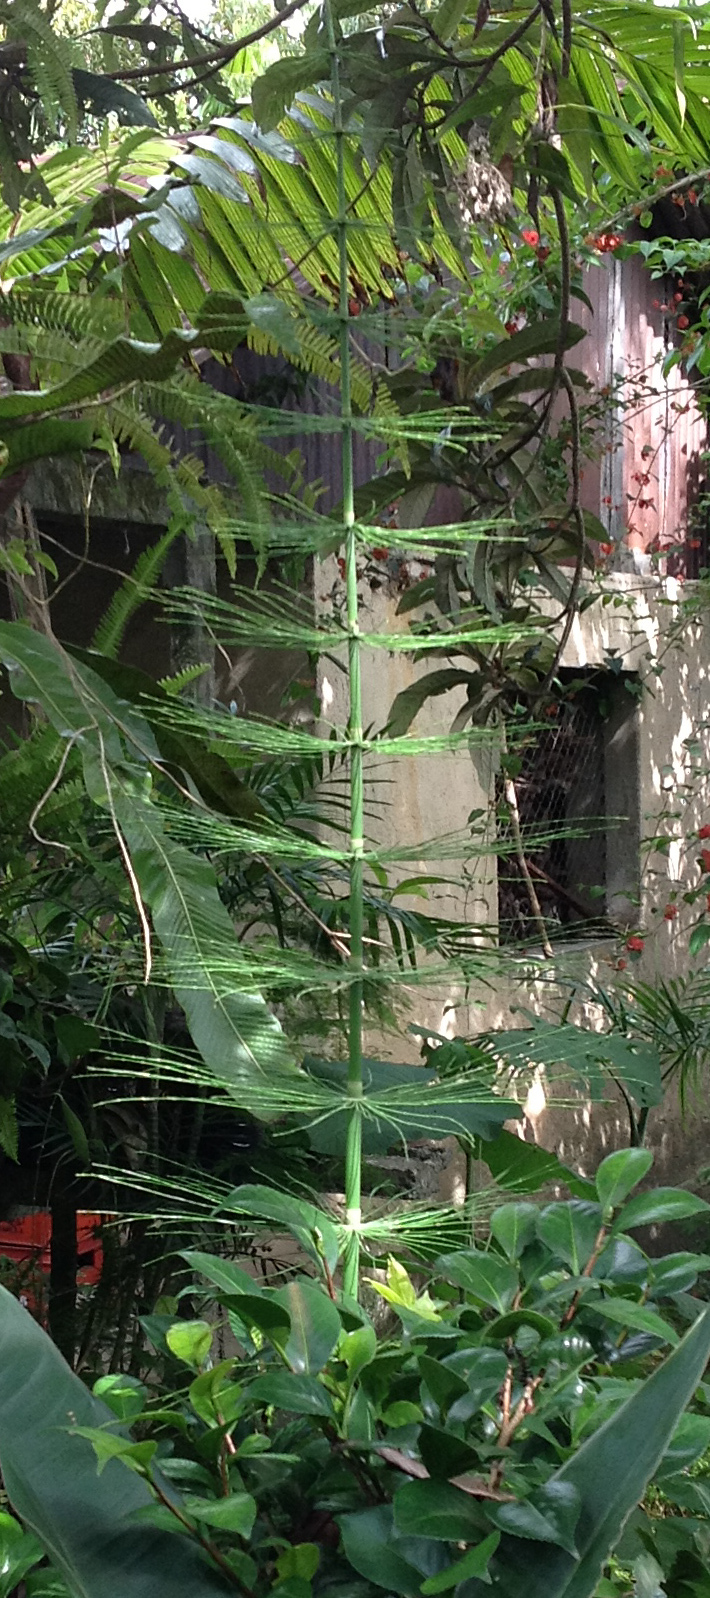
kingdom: Plantae
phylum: Tracheophyta
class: Polypodiopsida
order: Equisetales
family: Equisetaceae
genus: Equisetum
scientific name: Equisetum myriochaetum
